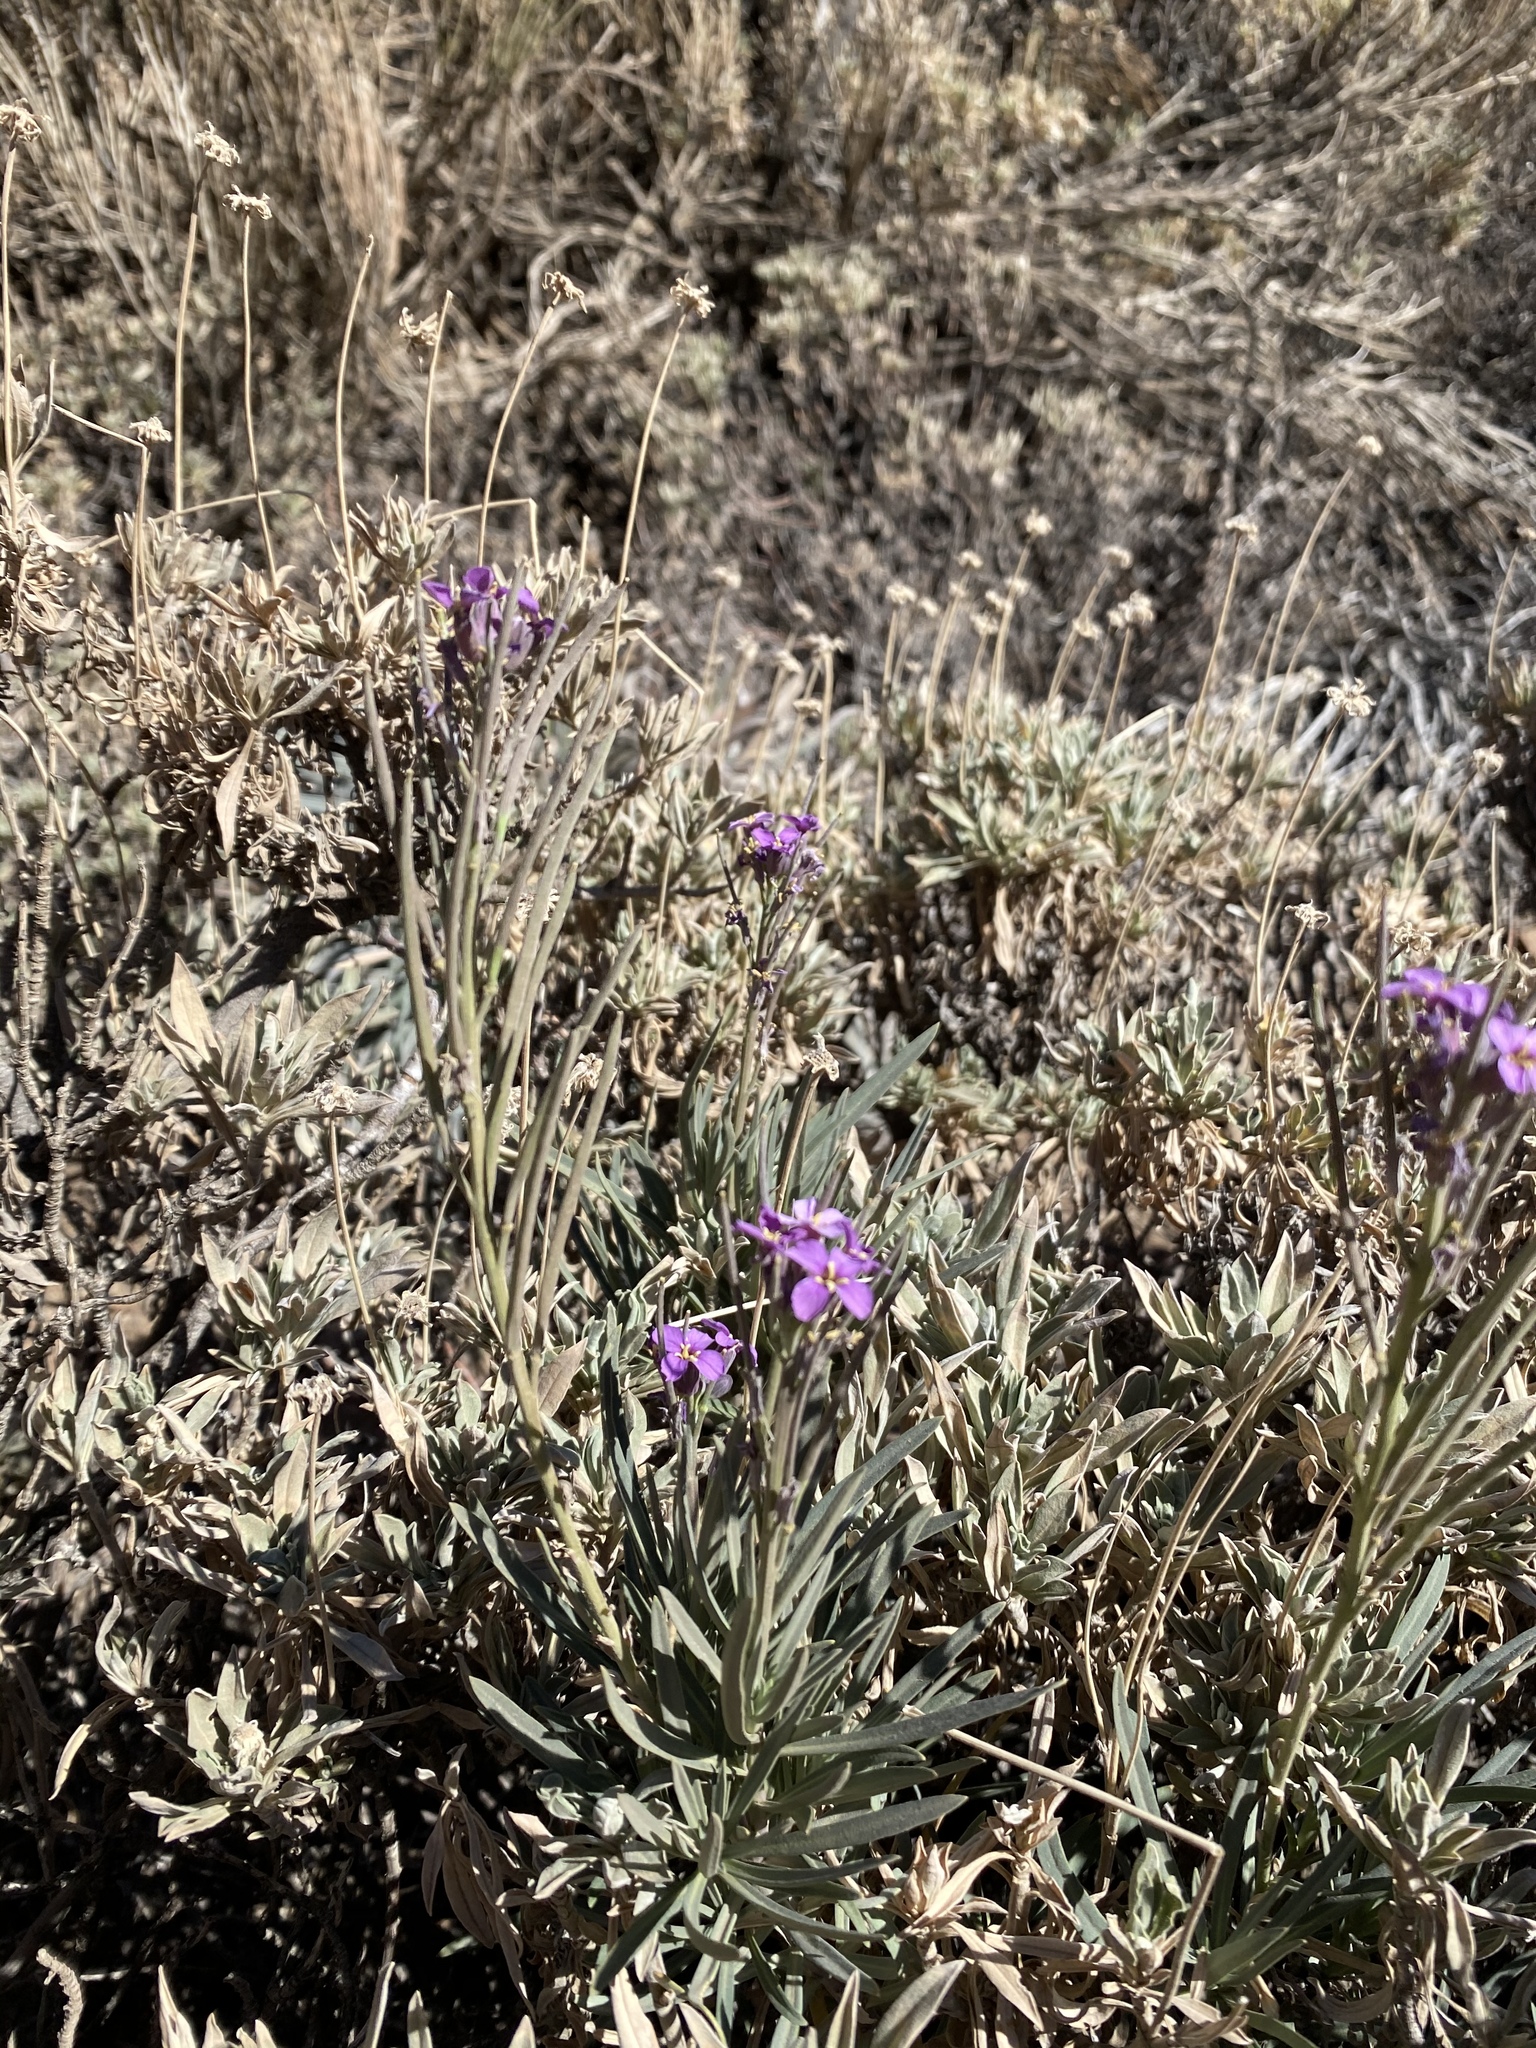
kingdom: Plantae
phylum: Tracheophyta
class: Magnoliopsida
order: Brassicales
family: Brassicaceae
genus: Erysimum
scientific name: Erysimum scoparium
